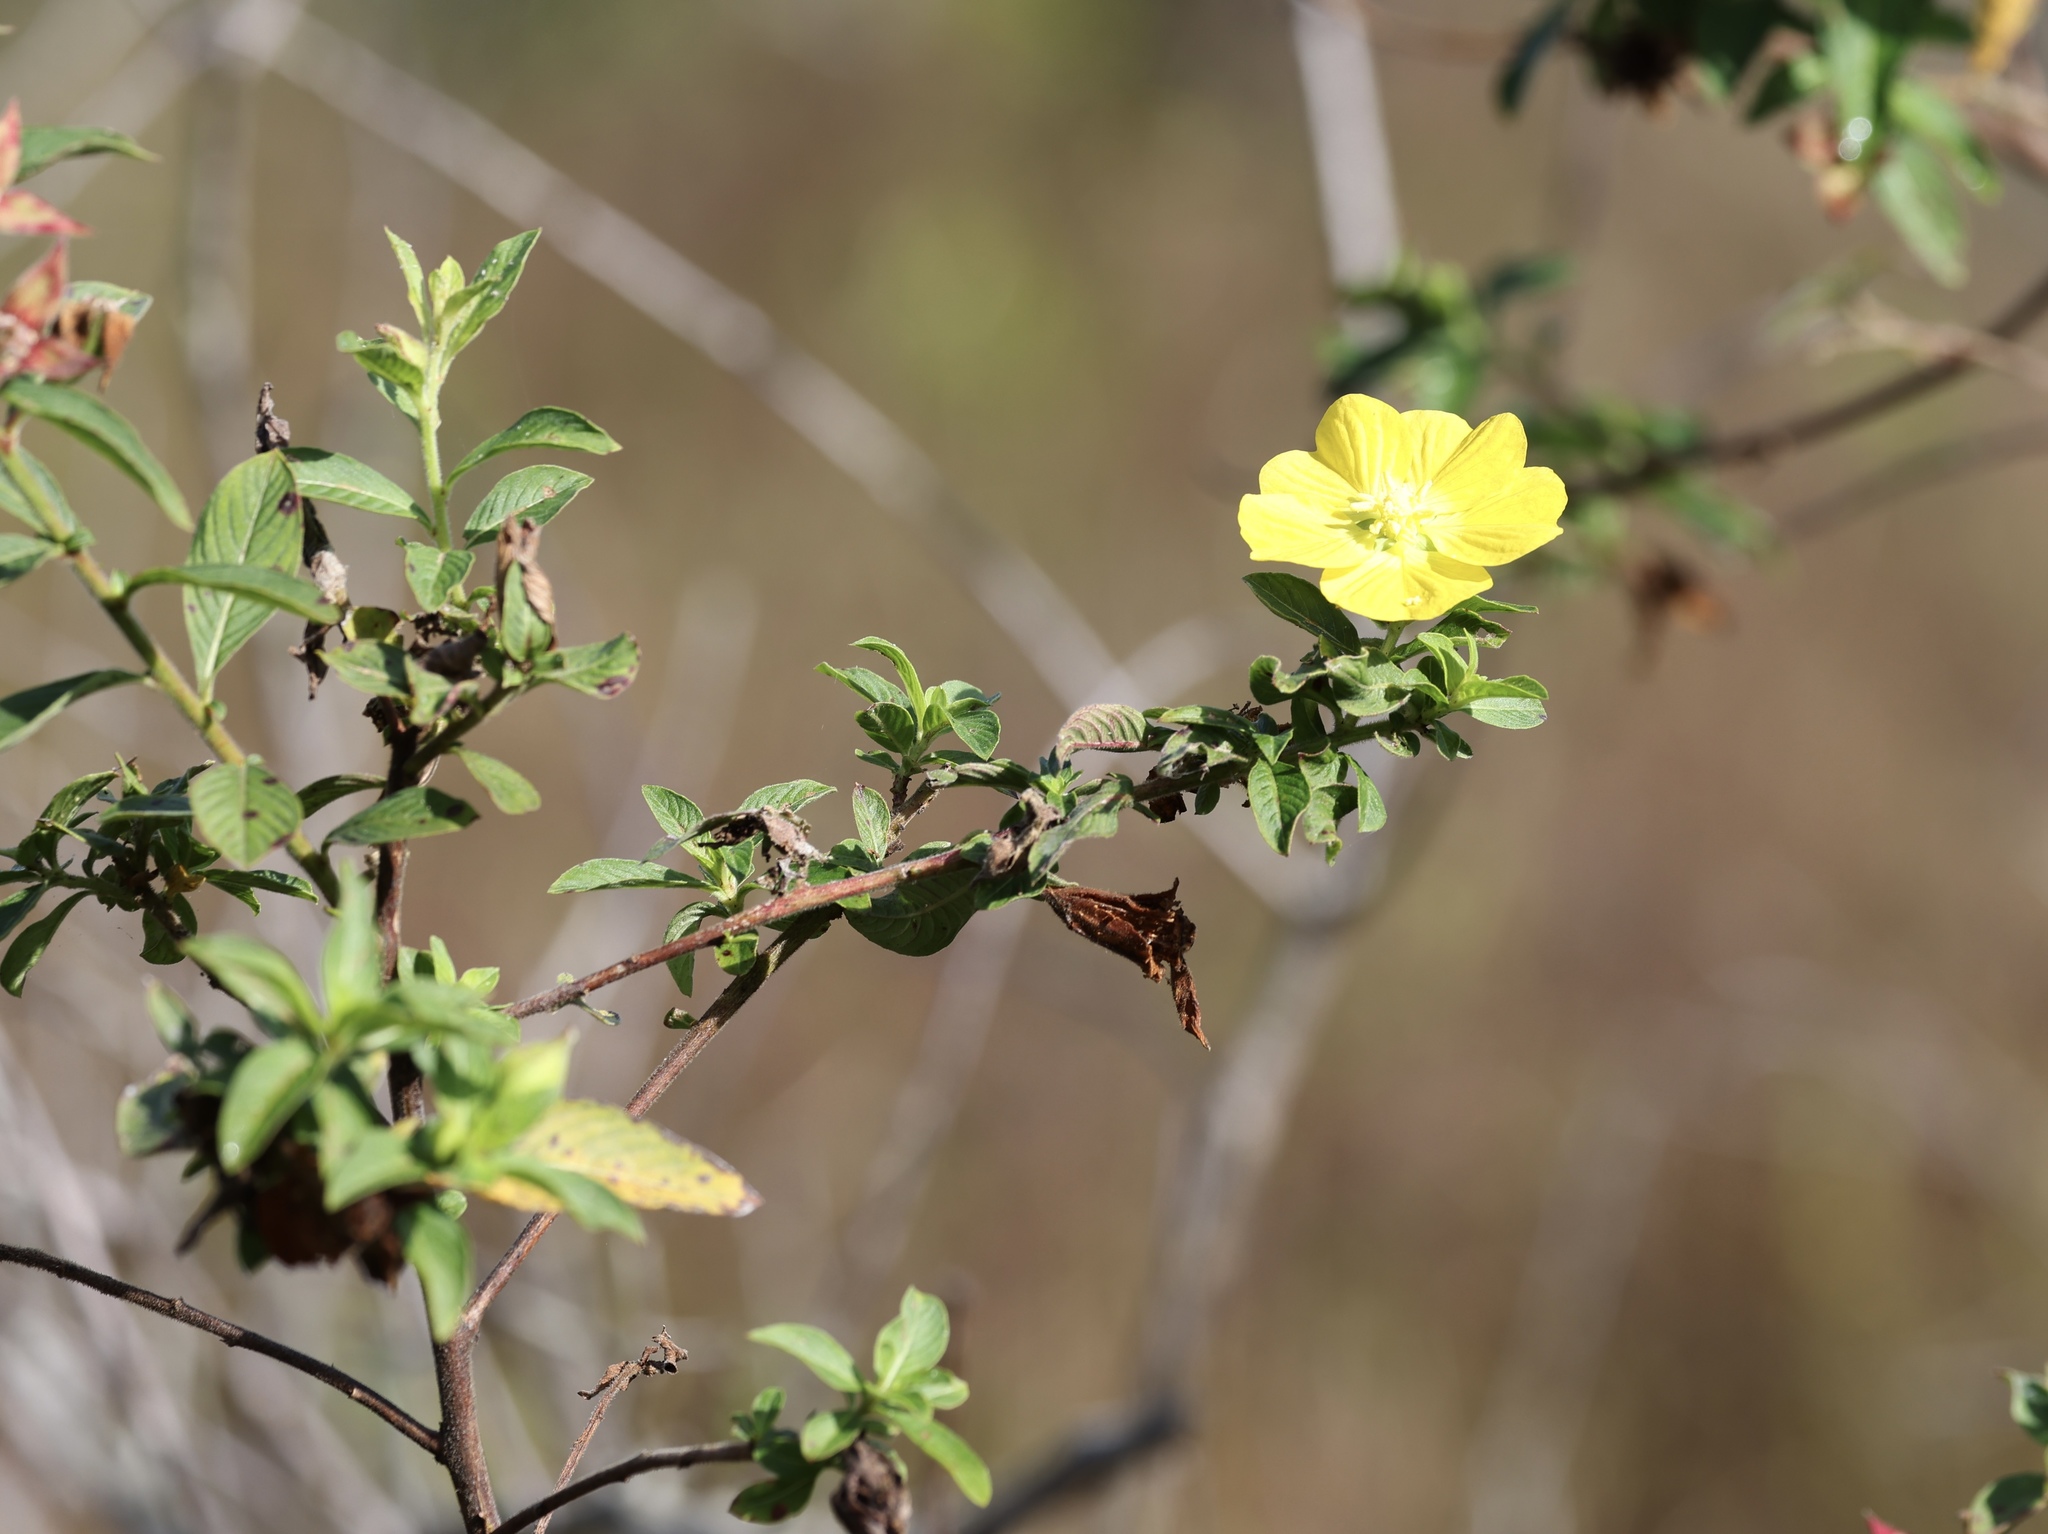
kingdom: Plantae
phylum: Tracheophyta
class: Magnoliopsida
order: Myrtales
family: Onagraceae
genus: Ludwigia
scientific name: Ludwigia peruviana
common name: Peruvian primrose-willow
